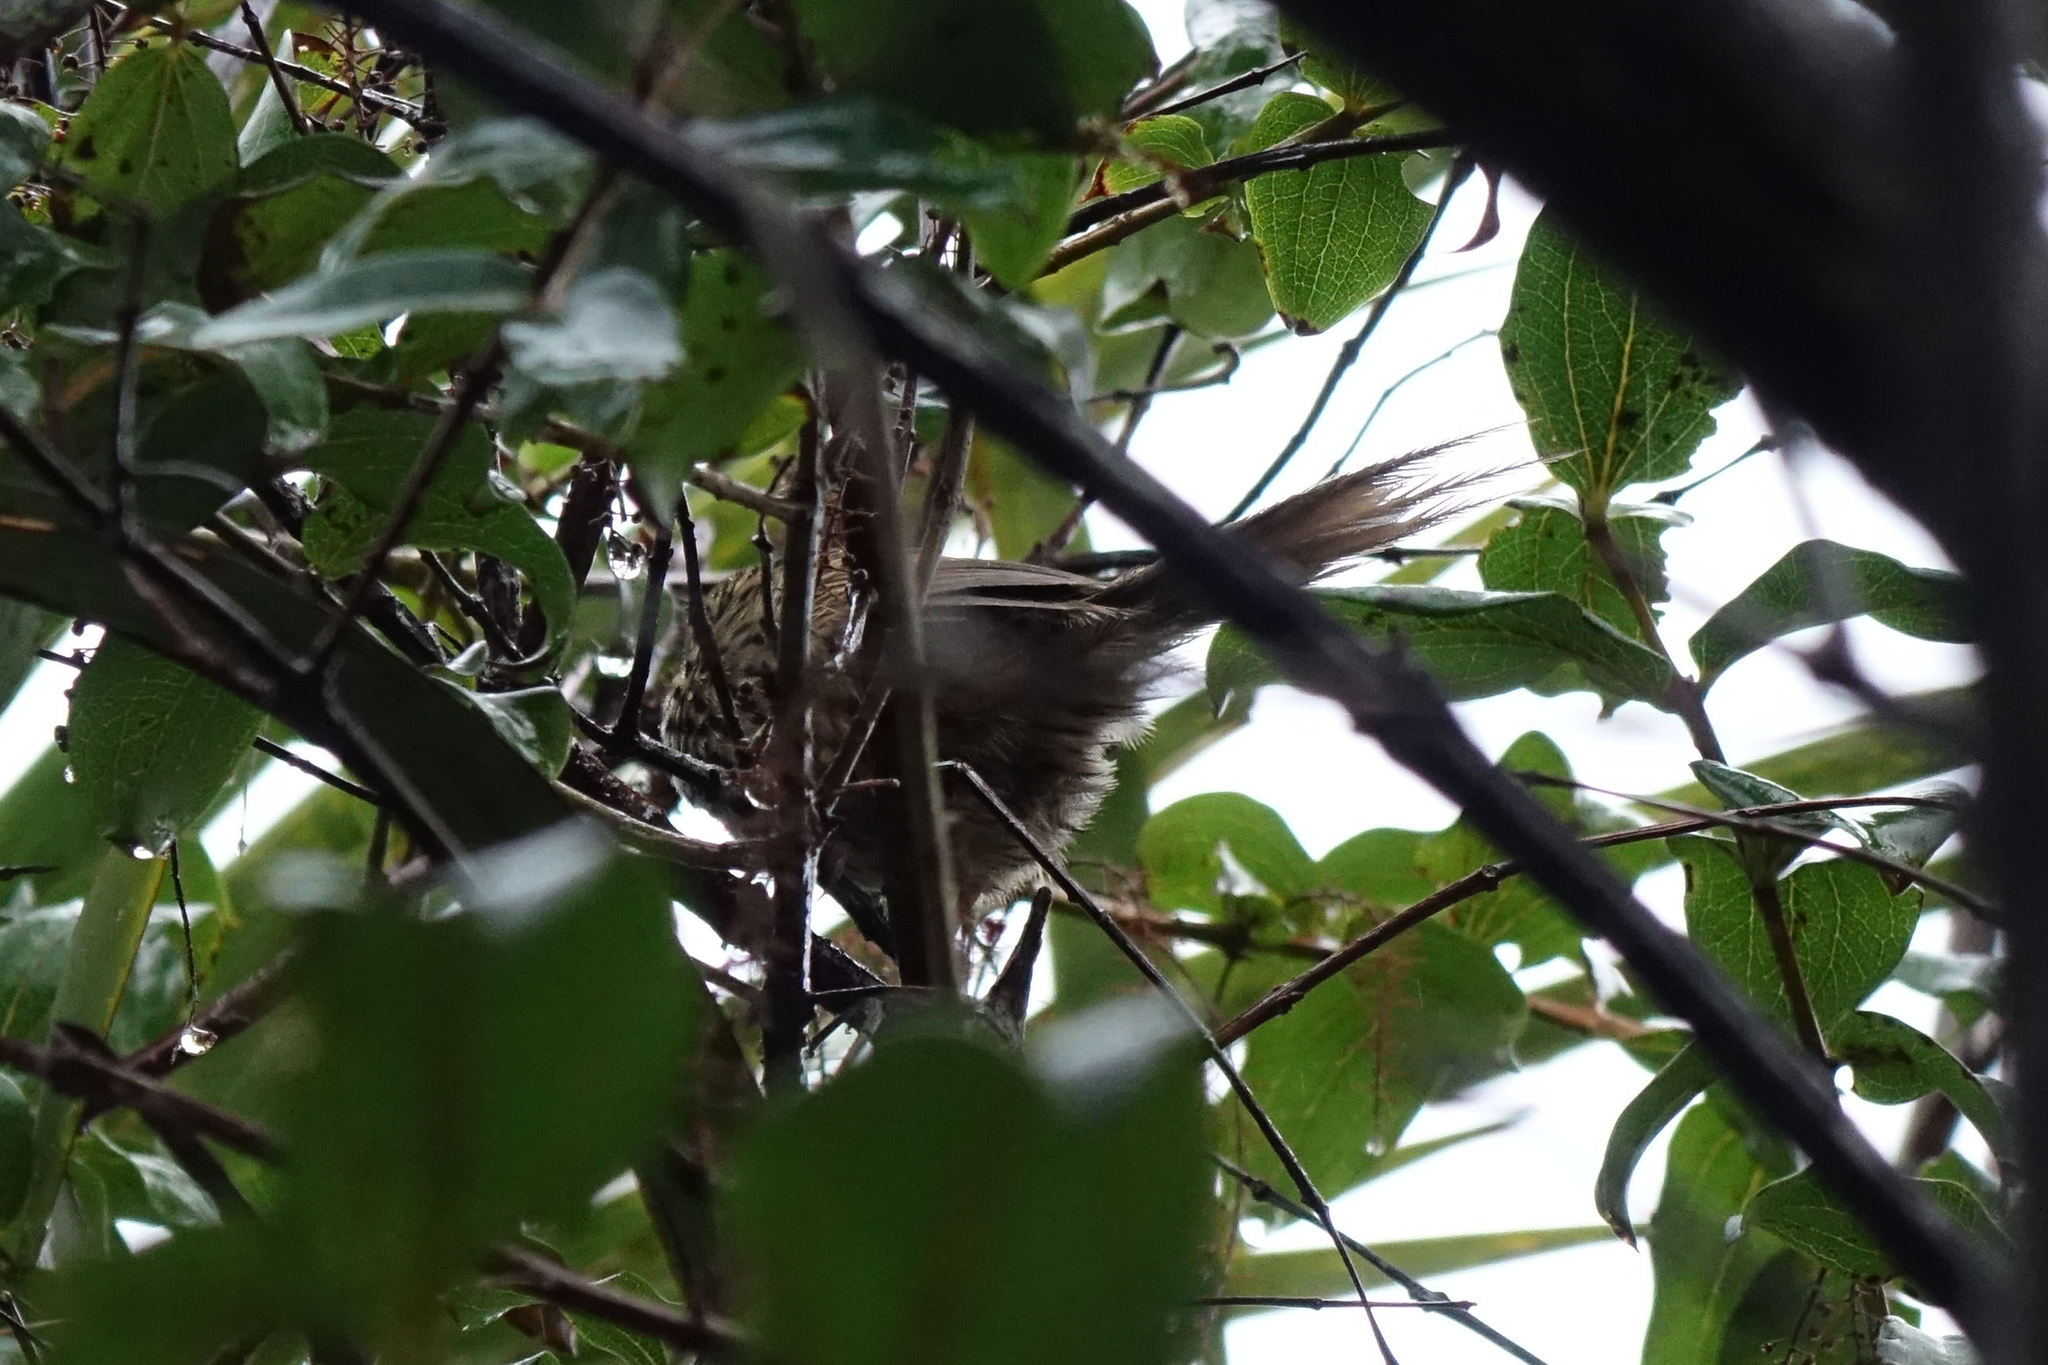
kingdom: Animalia
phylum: Chordata
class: Aves
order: Passeriformes
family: Locustellidae
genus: Poodytes
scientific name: Poodytes punctatus
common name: New zealand fernbird
